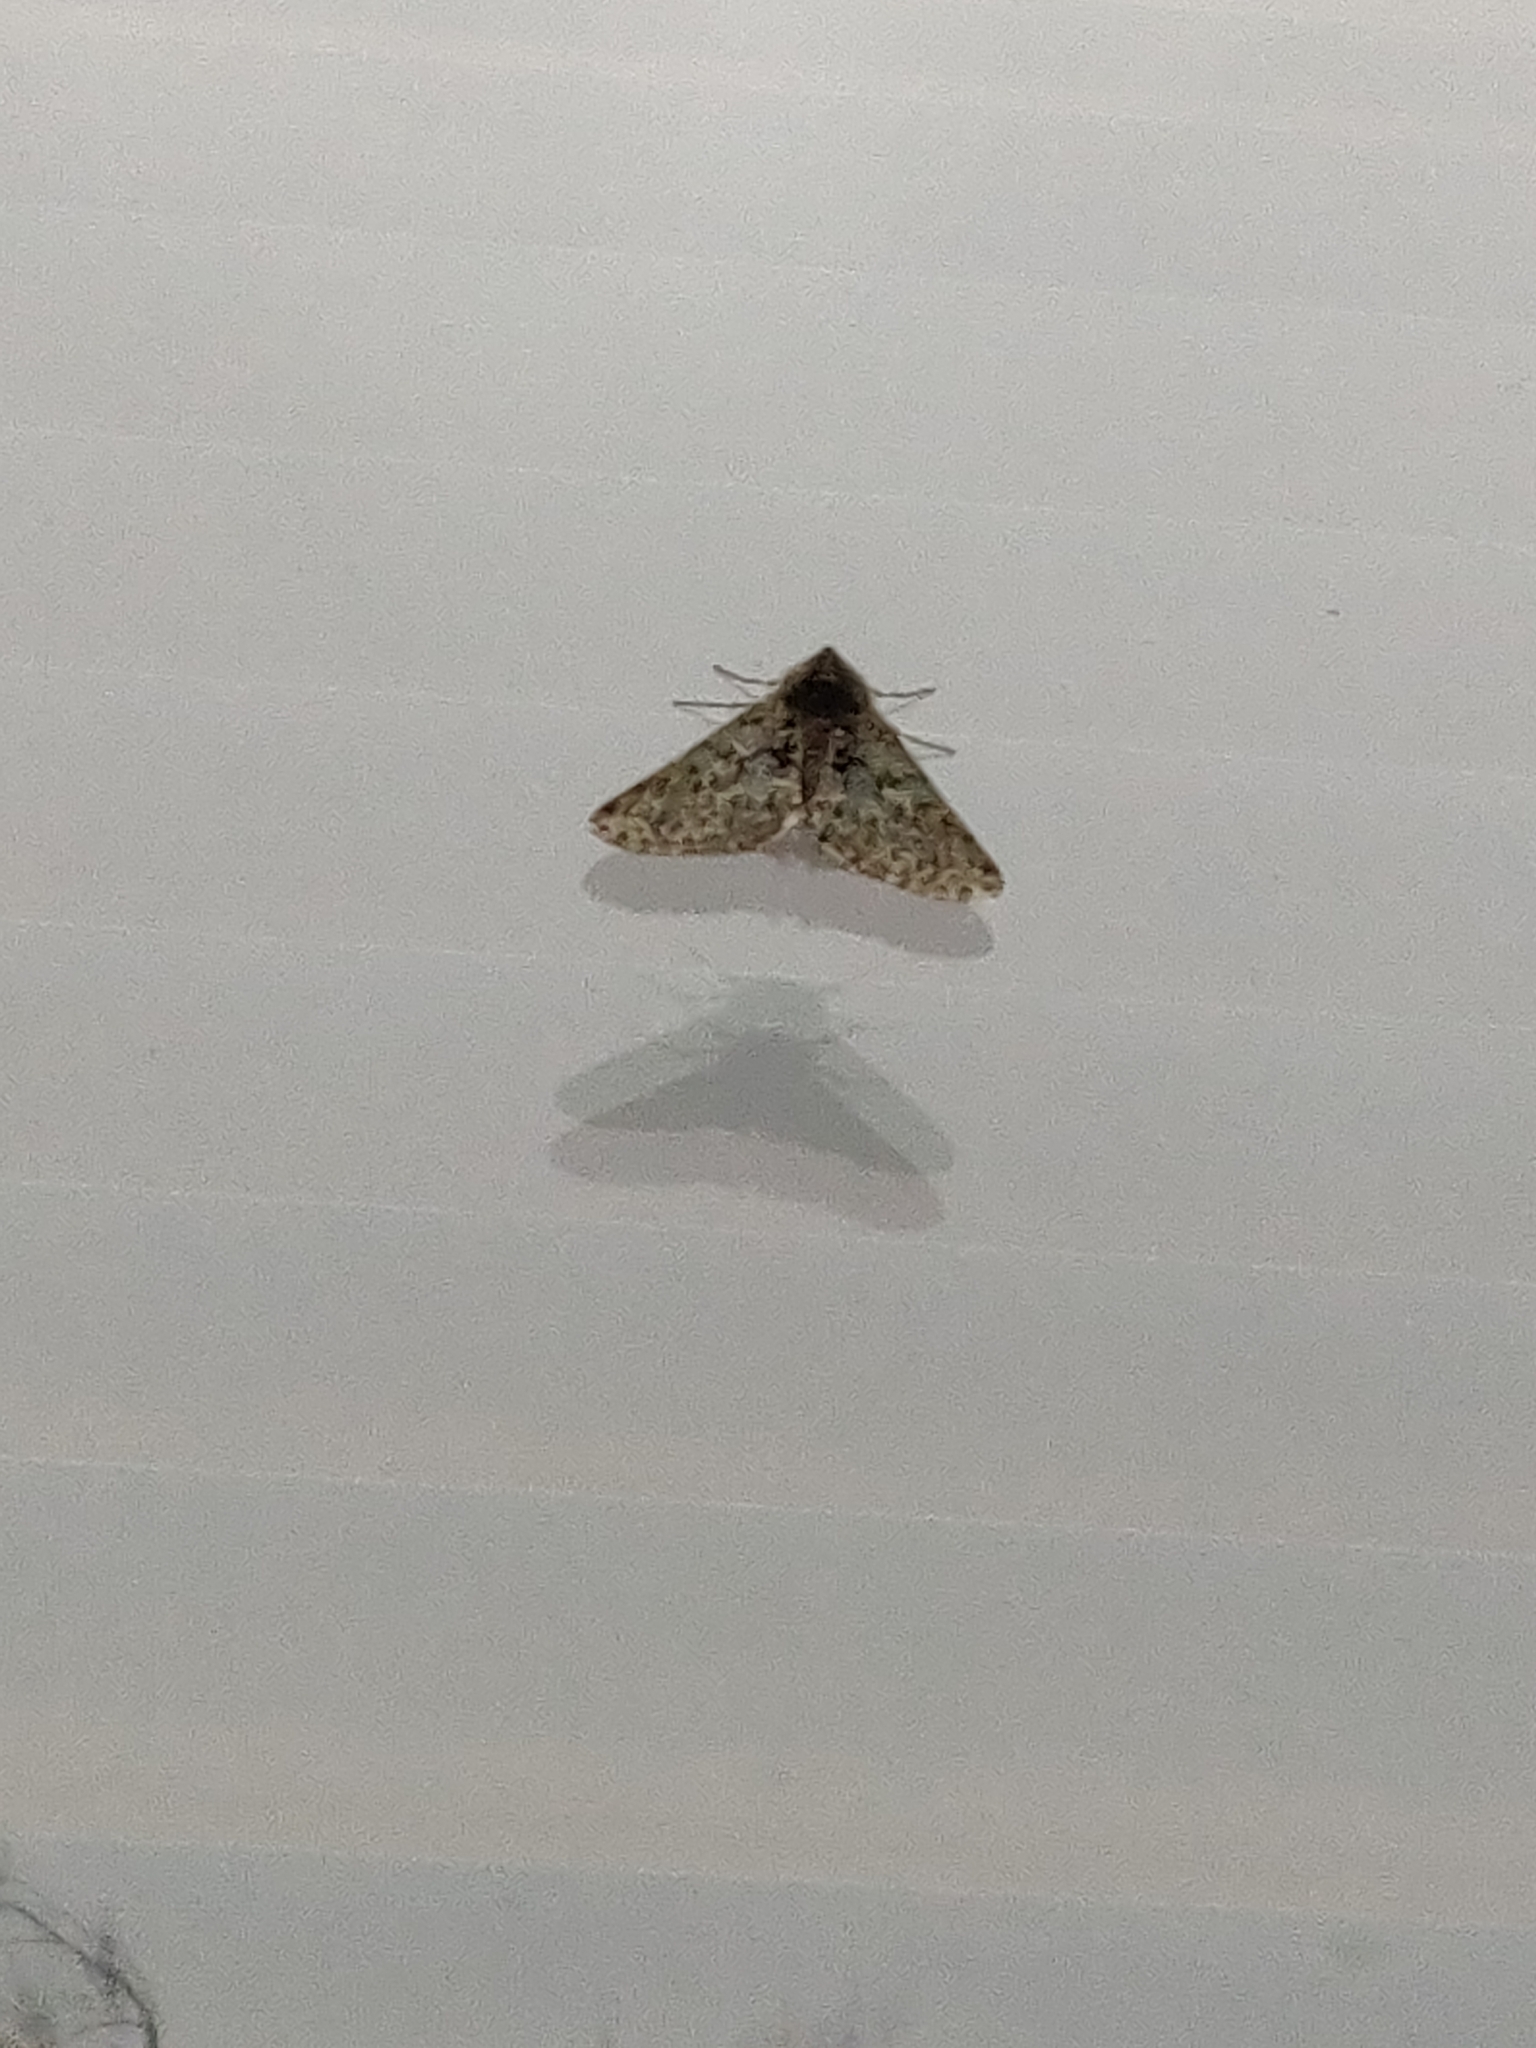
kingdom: Animalia
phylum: Arthropoda
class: Insecta
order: Lepidoptera
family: Geometridae
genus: Phigalia
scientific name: Phigalia pilosaria
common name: Pale brindled beauty
